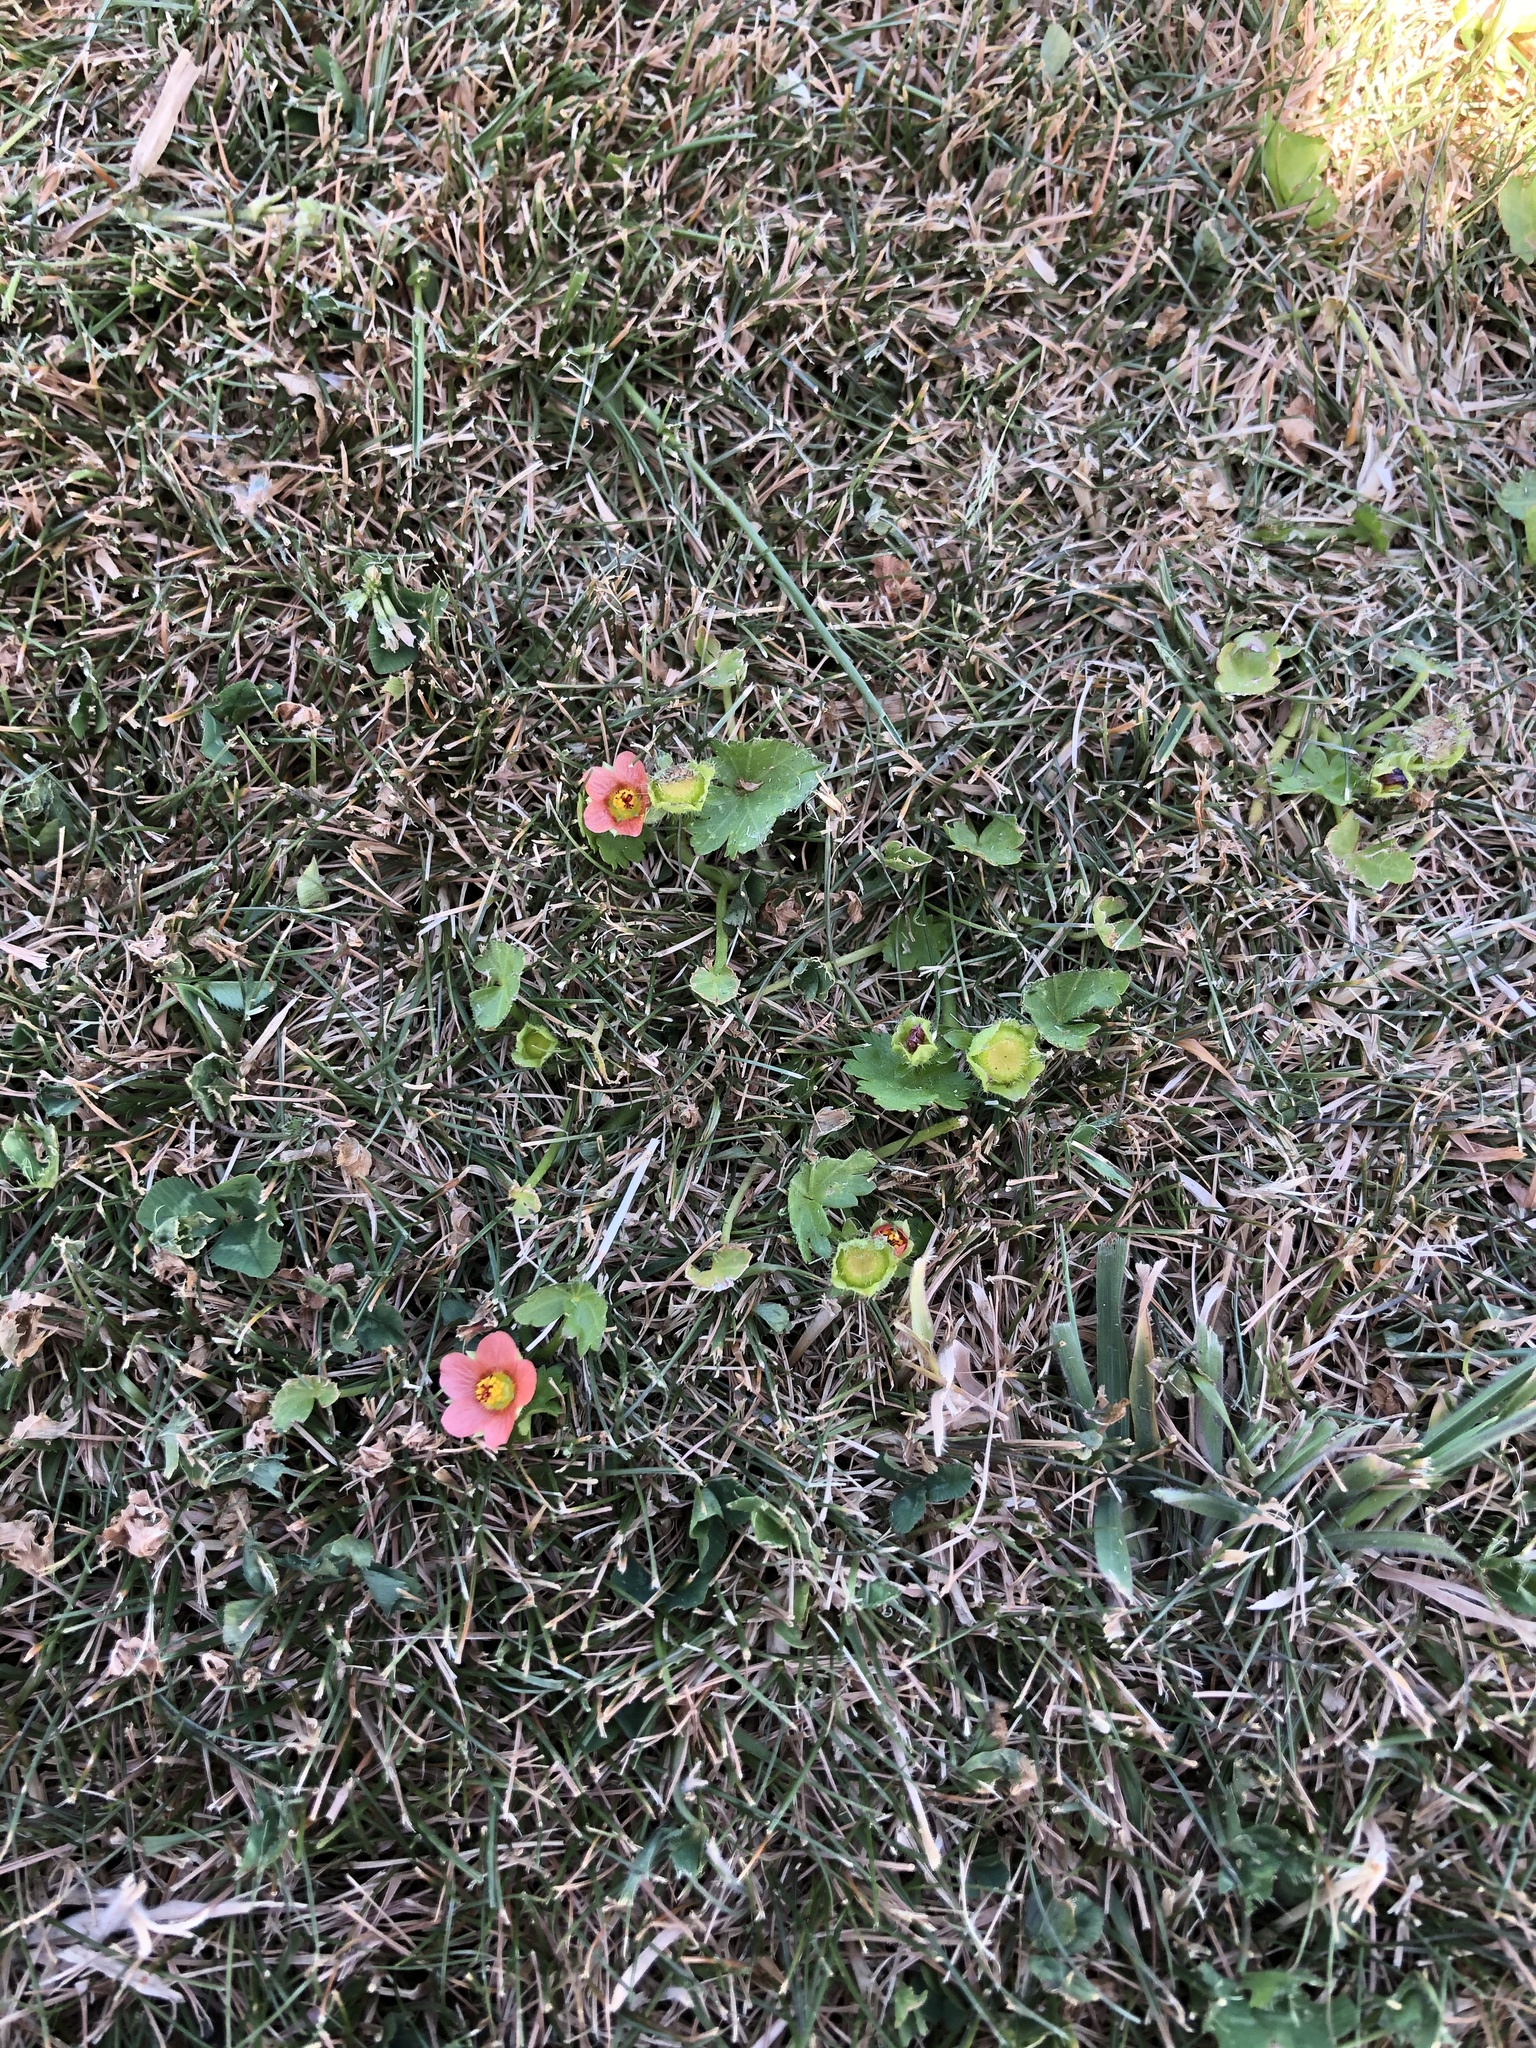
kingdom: Plantae
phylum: Tracheophyta
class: Magnoliopsida
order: Malvales
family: Malvaceae
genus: Modiola
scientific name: Modiola caroliniana
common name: Carolina bristlemallow
